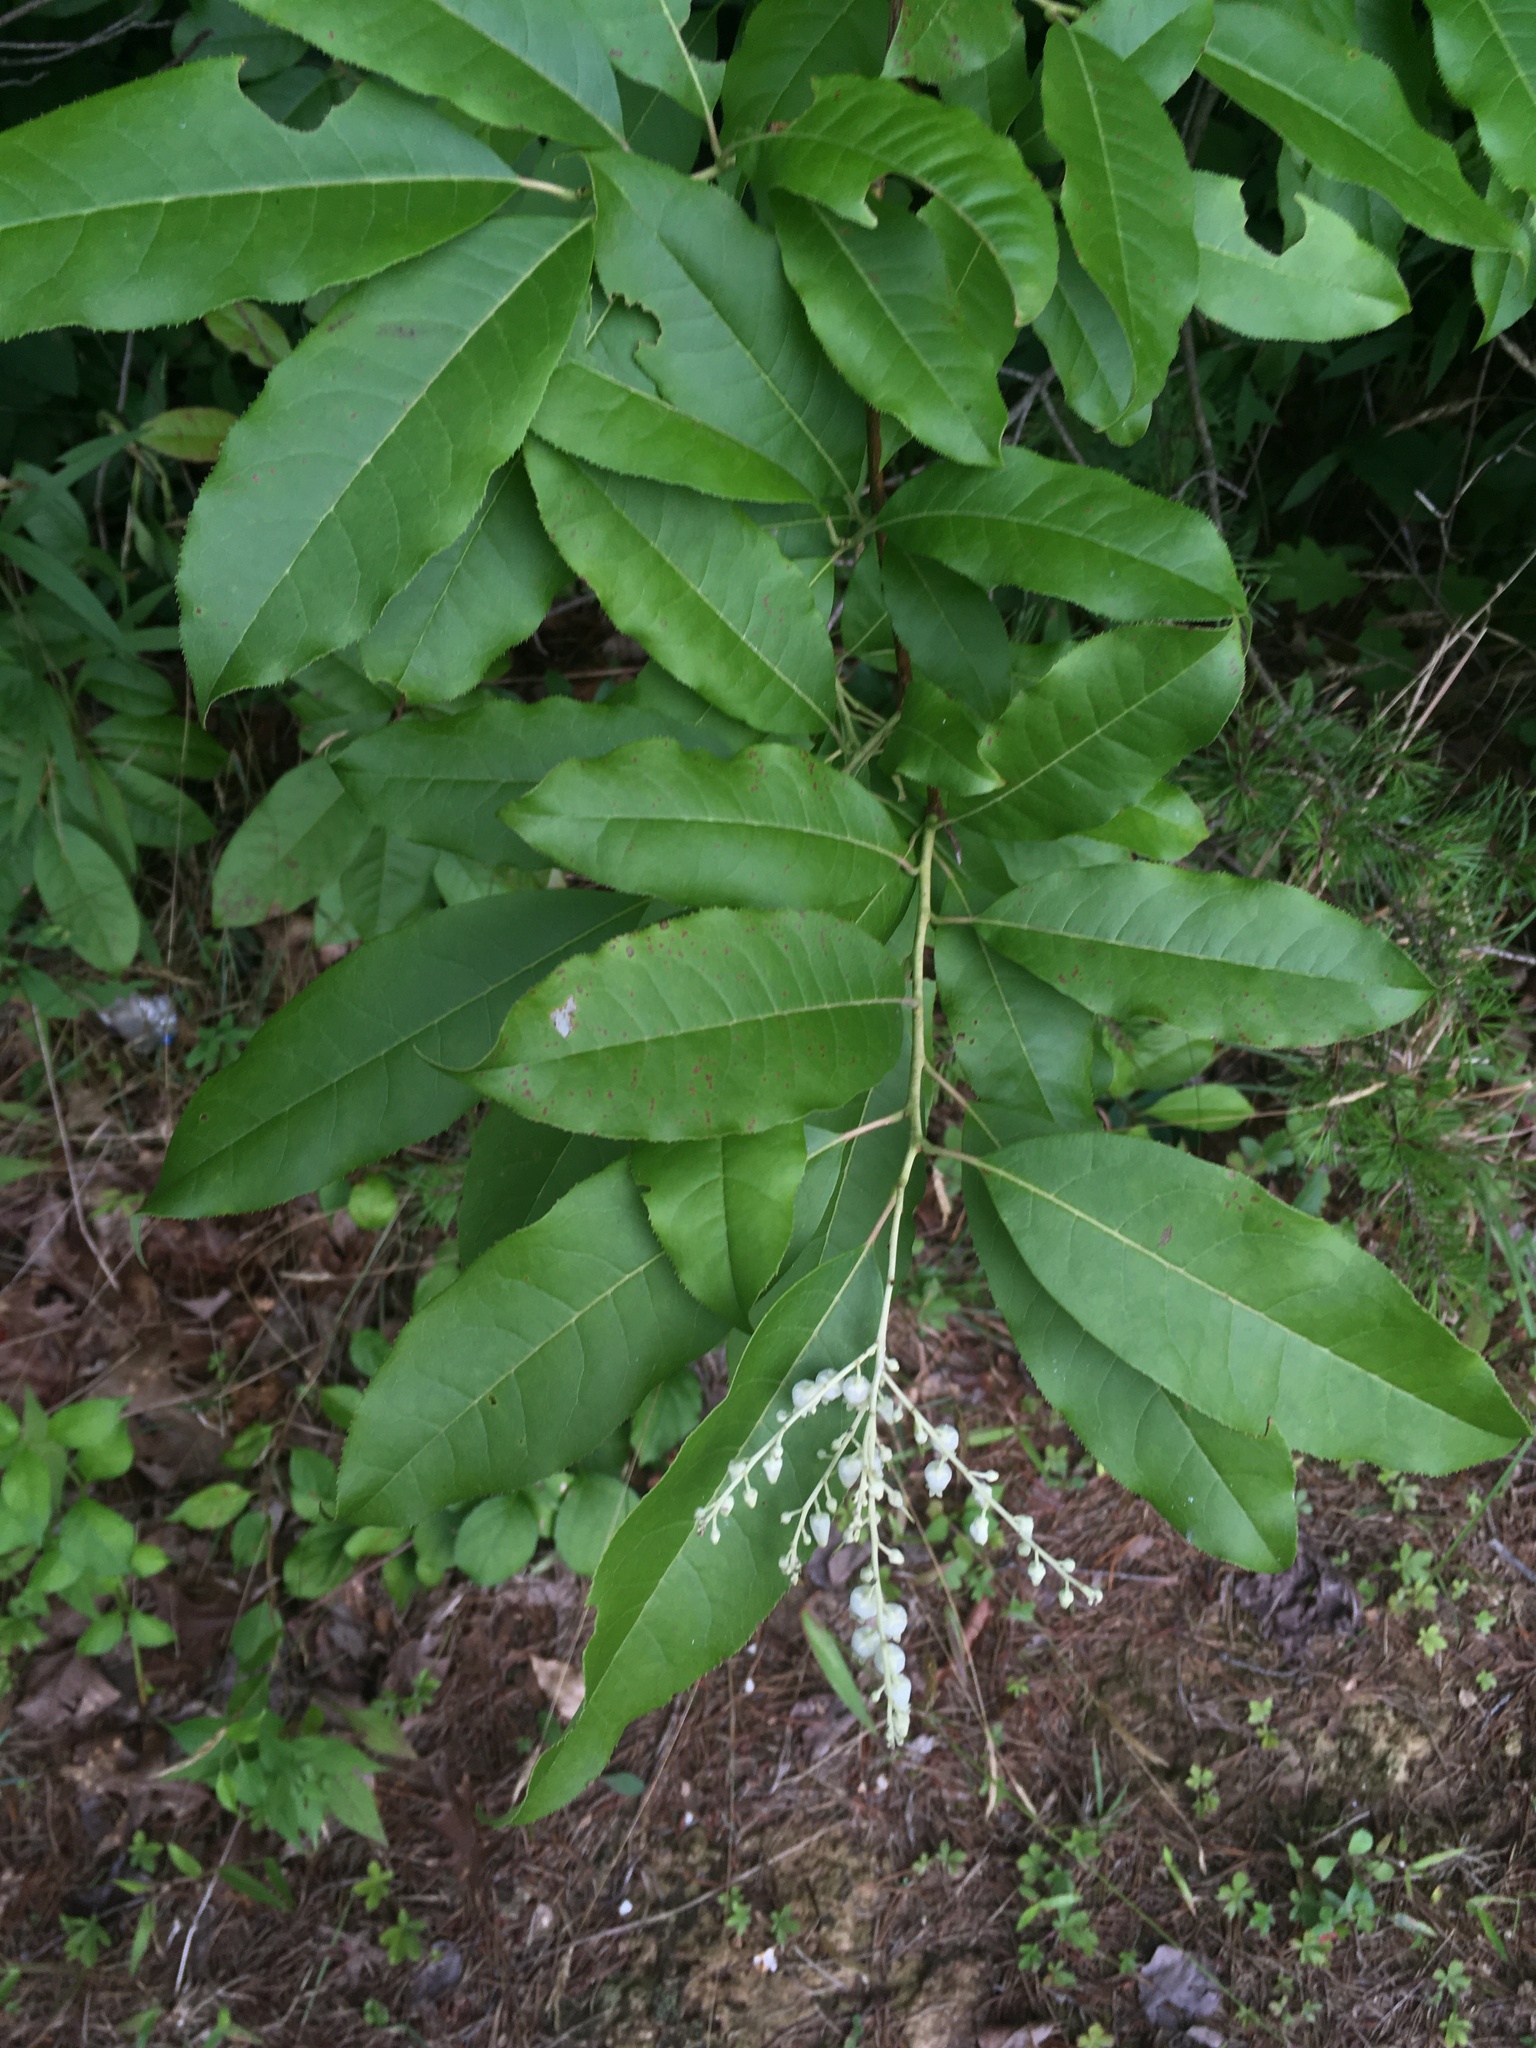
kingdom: Plantae
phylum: Tracheophyta
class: Magnoliopsida
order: Ericales
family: Ericaceae
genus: Oxydendrum
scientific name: Oxydendrum arboreum
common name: Sourwood
